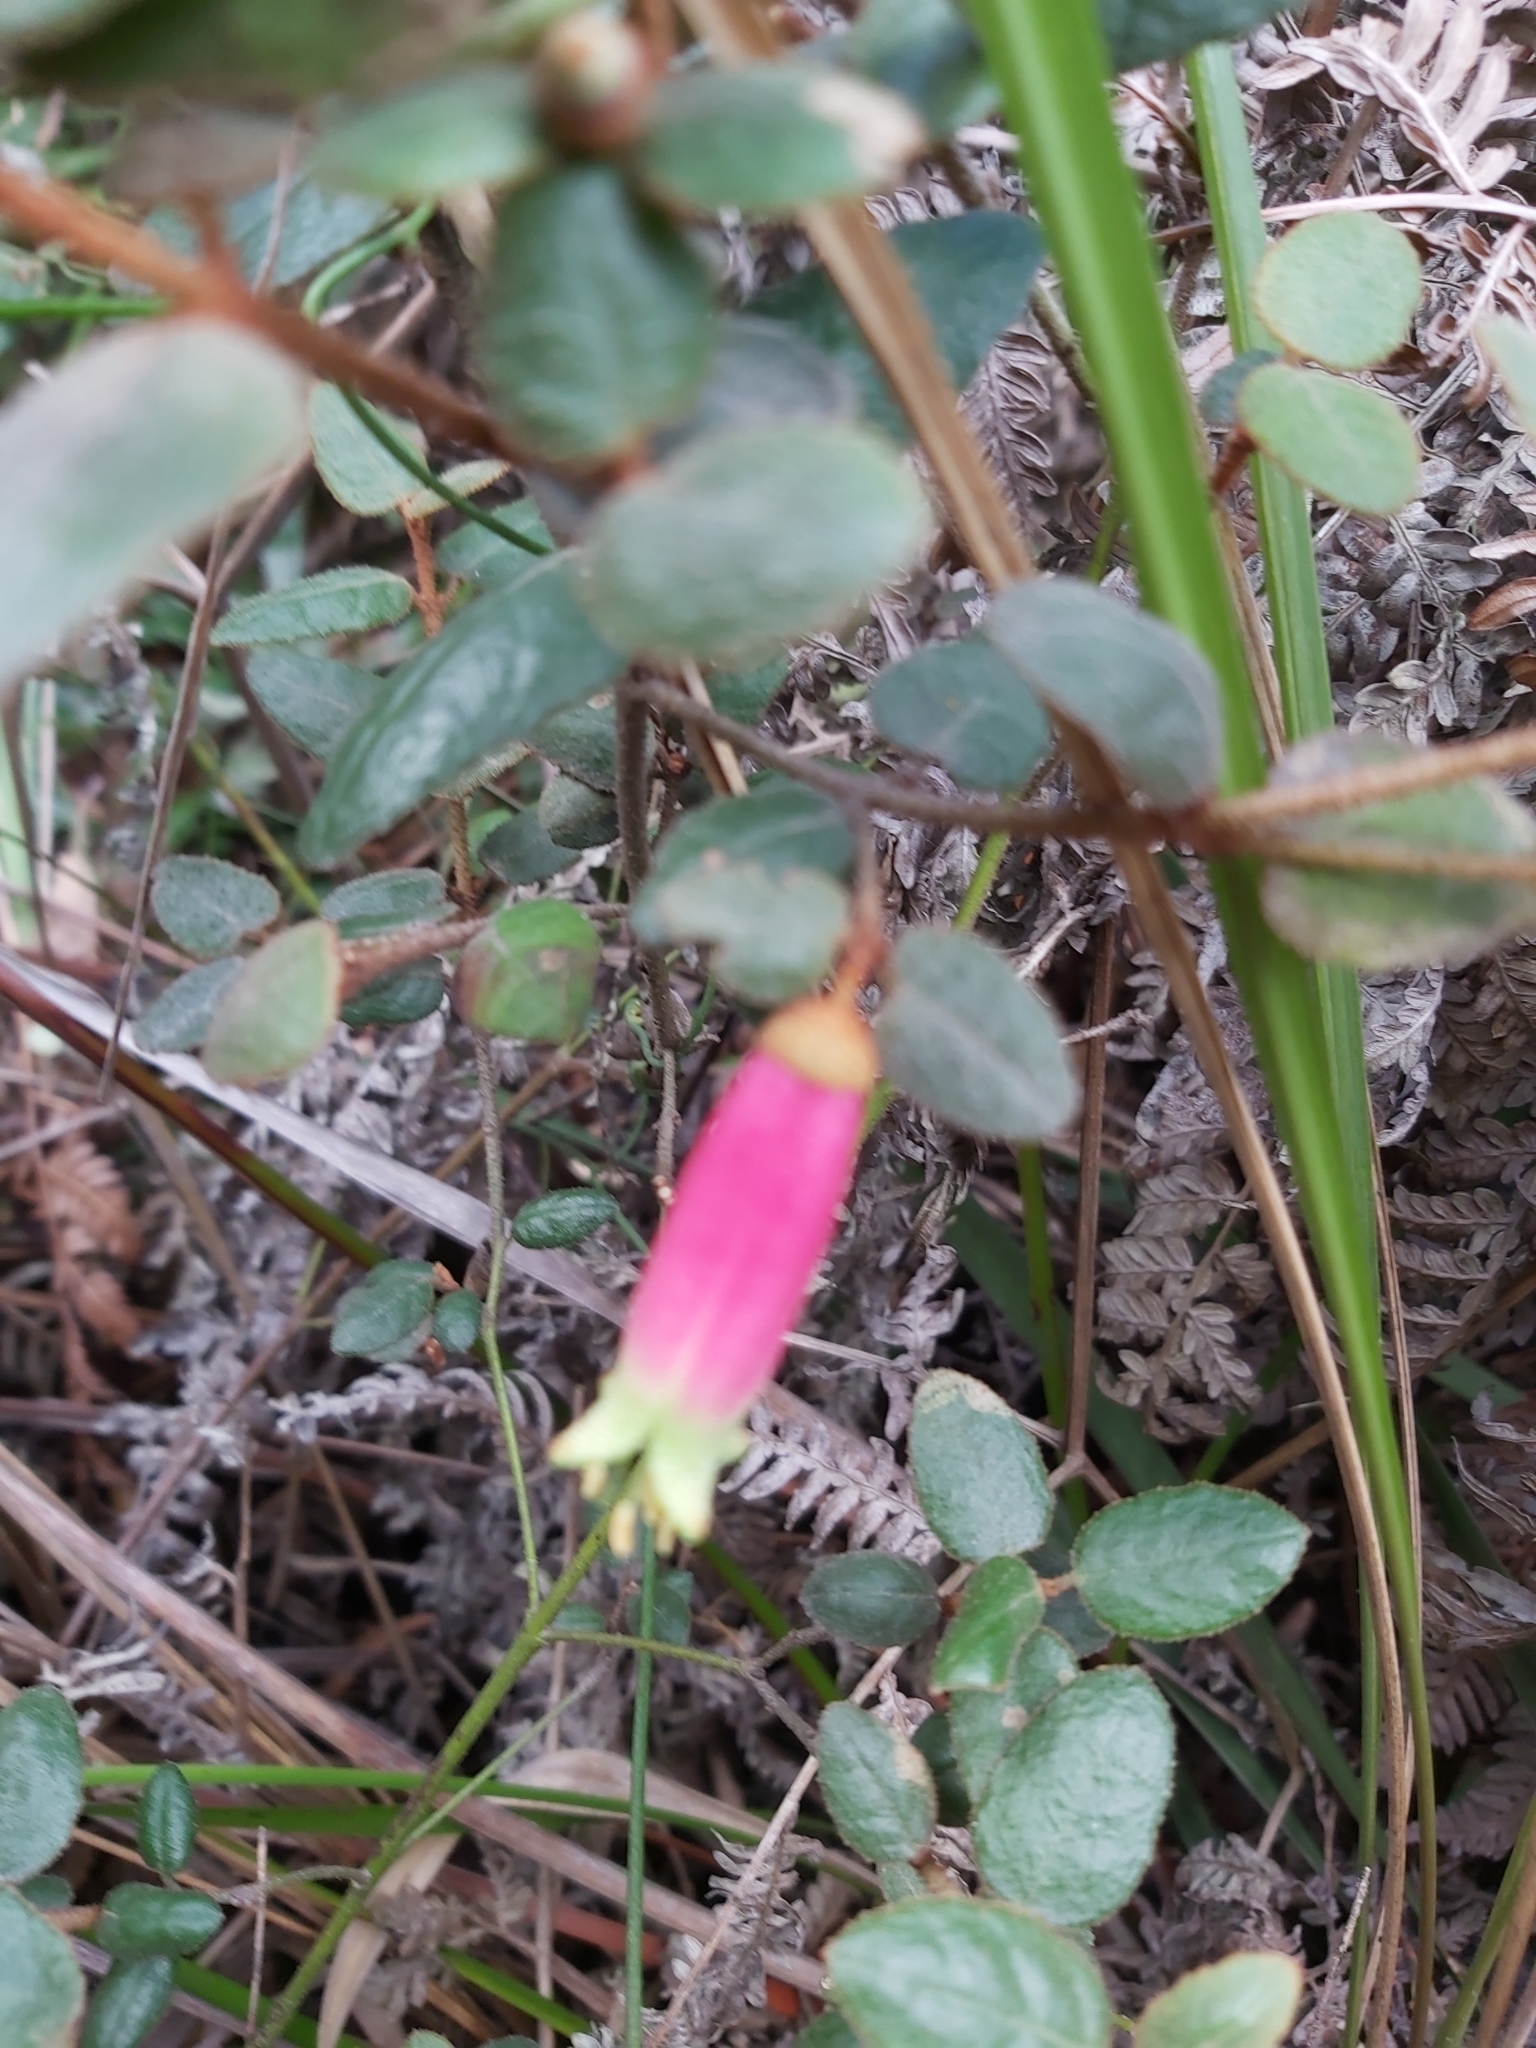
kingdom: Plantae
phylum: Tracheophyta
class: Magnoliopsida
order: Sapindales
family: Rutaceae
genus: Correa
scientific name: Correa reflexa
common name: Common correa
